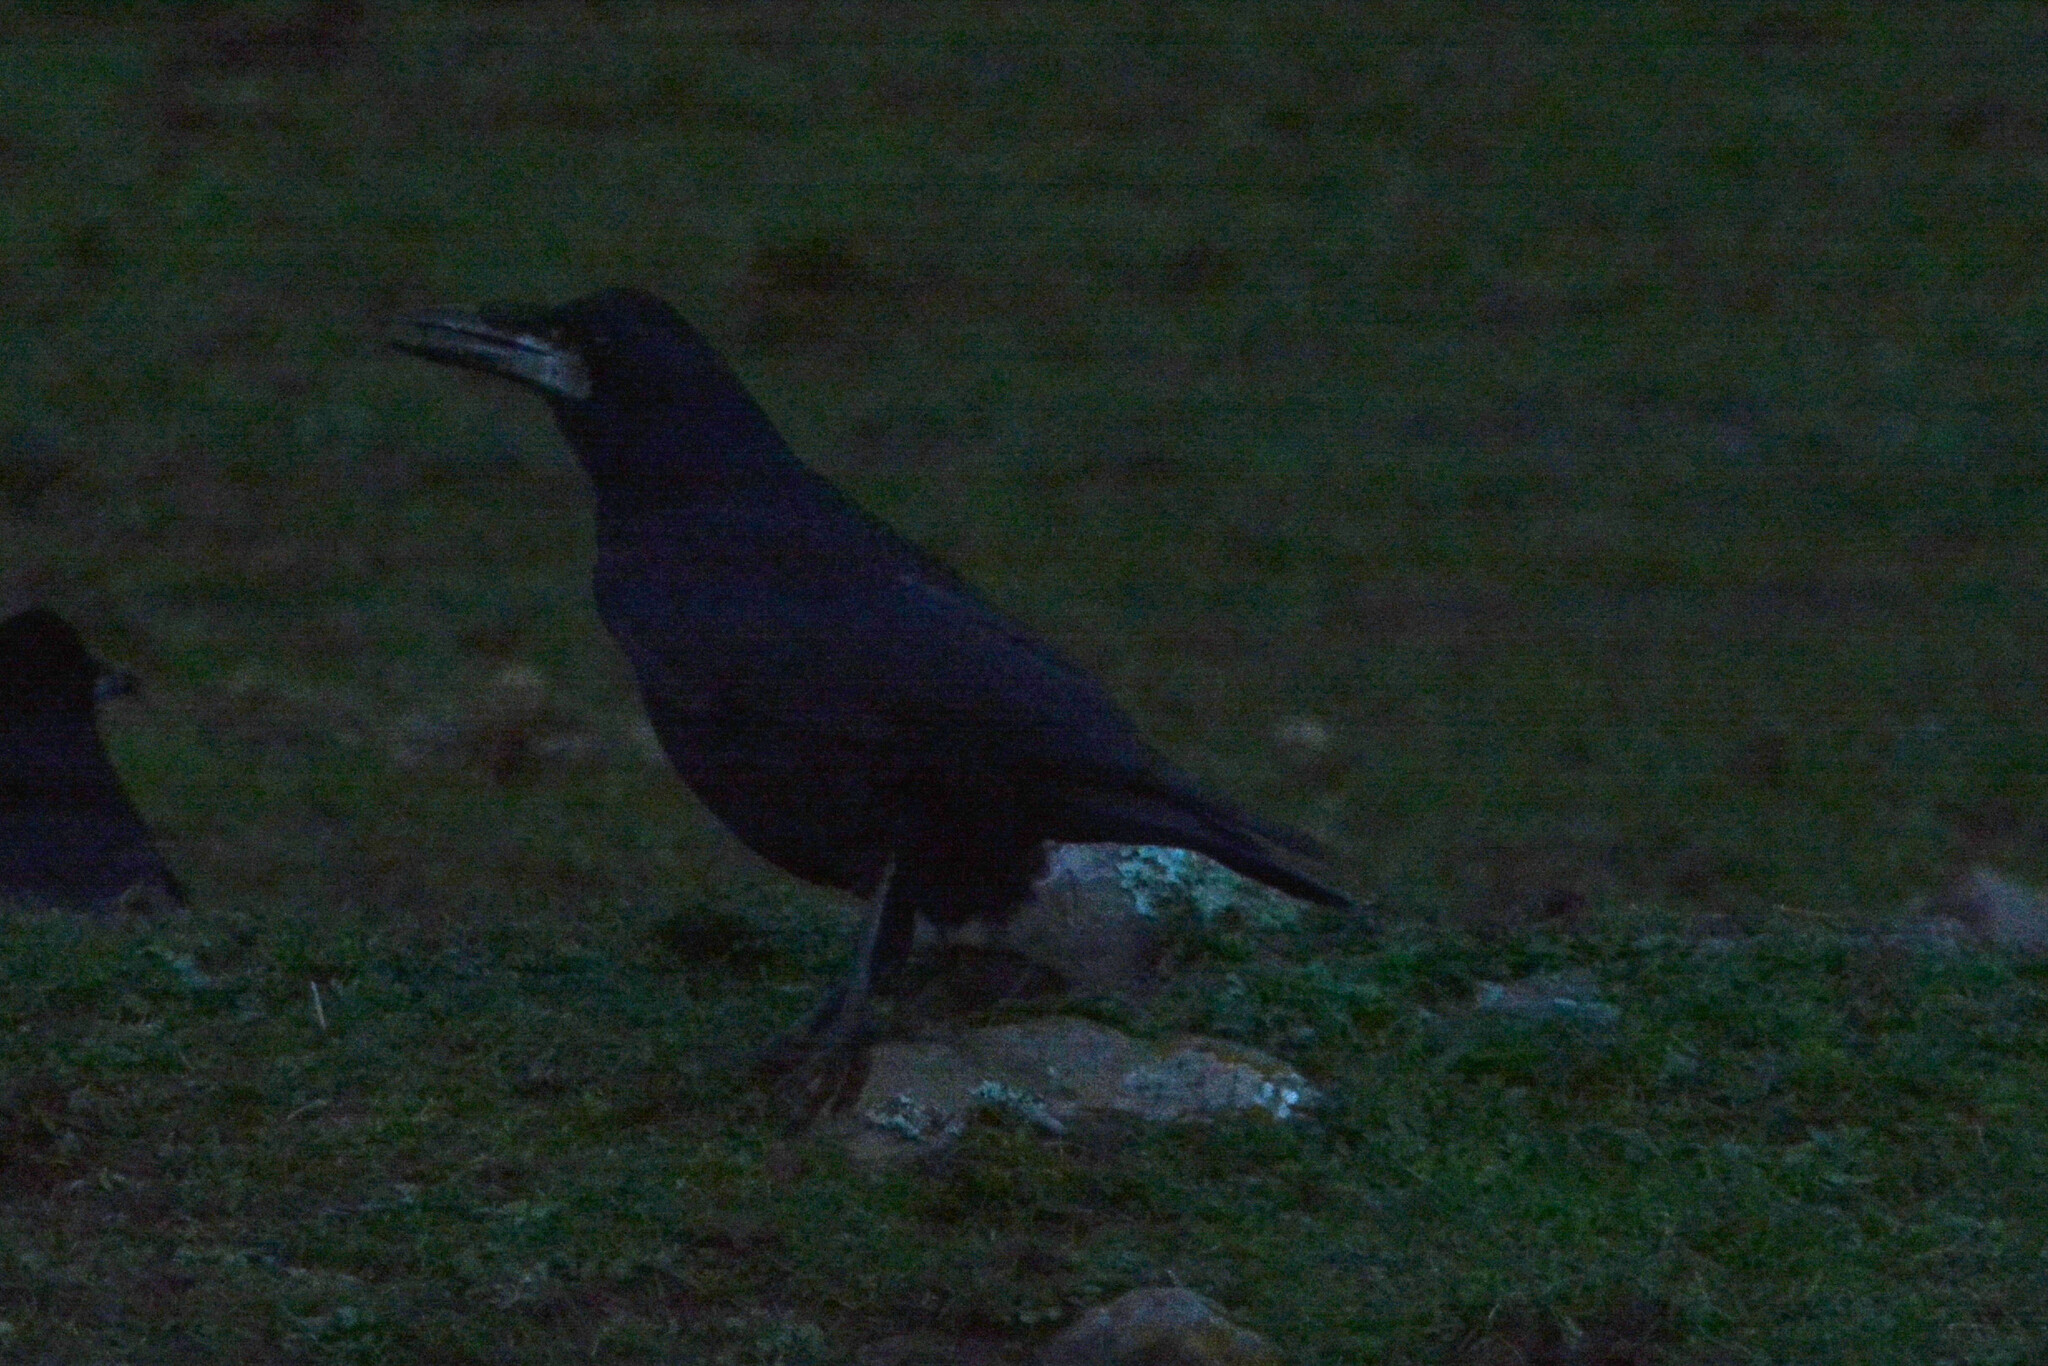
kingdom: Animalia
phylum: Chordata
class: Aves
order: Passeriformes
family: Corvidae
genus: Corvus
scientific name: Corvus frugilegus
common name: Rook
